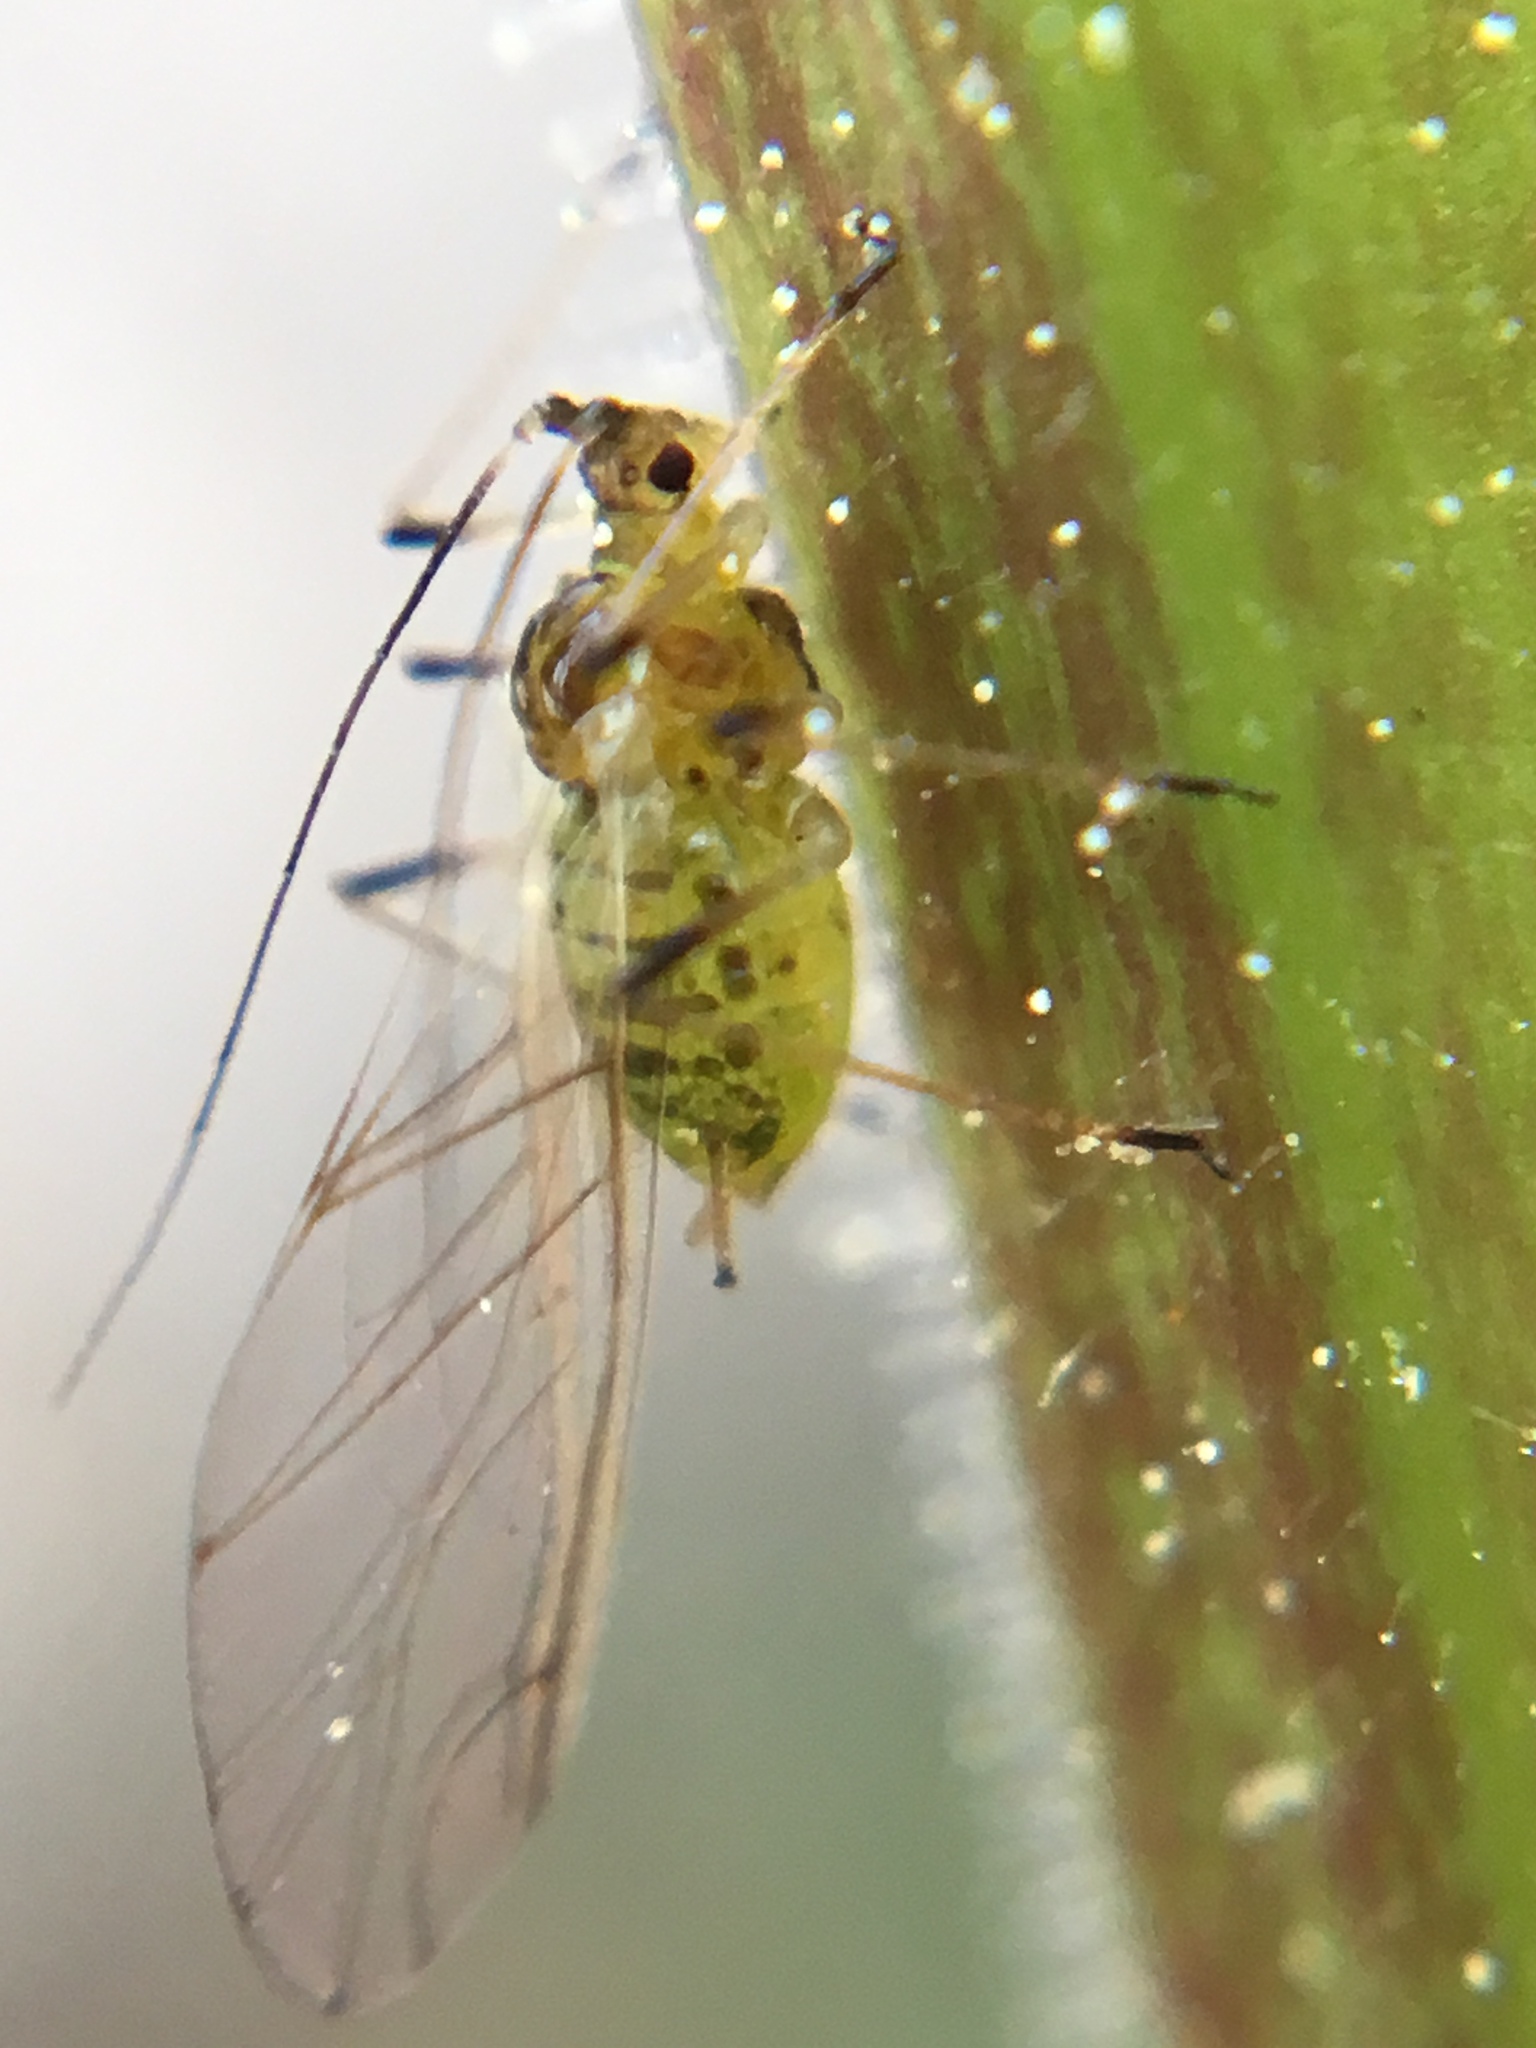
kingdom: Animalia
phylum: Arthropoda
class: Insecta
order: Hemiptera
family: Aphididae
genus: Aulacorthum
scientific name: Aulacorthum solani
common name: Foxglove aphid
